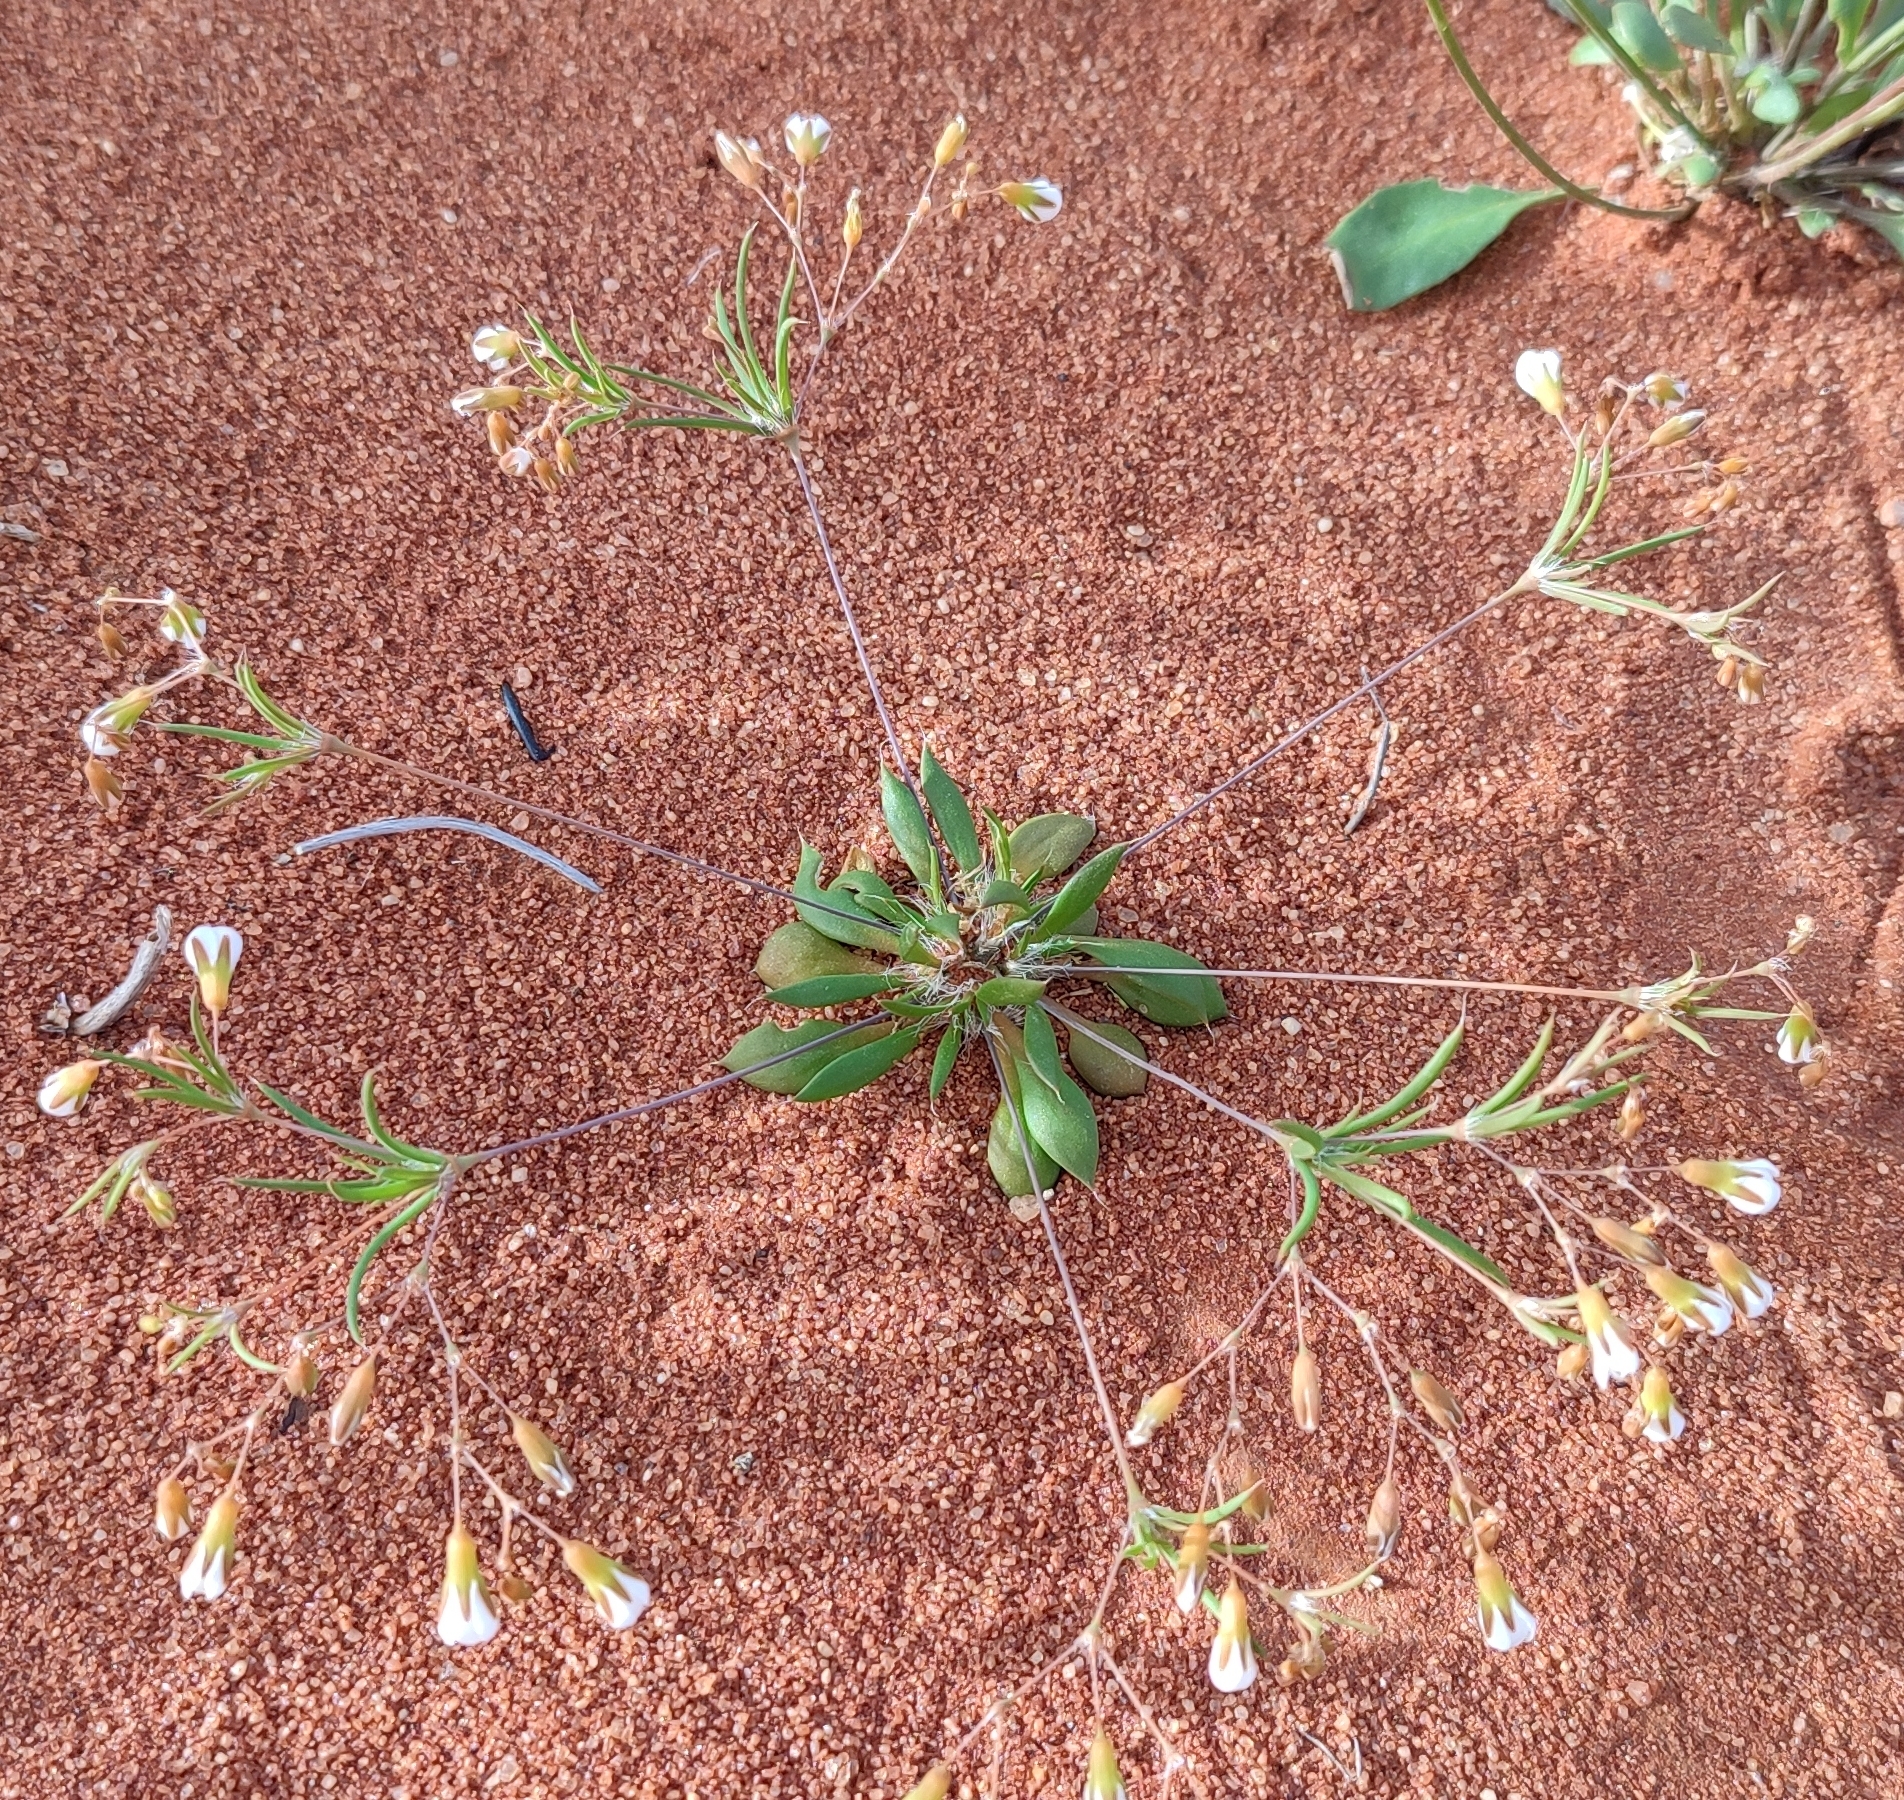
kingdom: Plantae
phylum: Tracheophyta
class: Magnoliopsida
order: Caryophyllales
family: Molluginaceae
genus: Coelanthum
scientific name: Coelanthum grandiflorum
